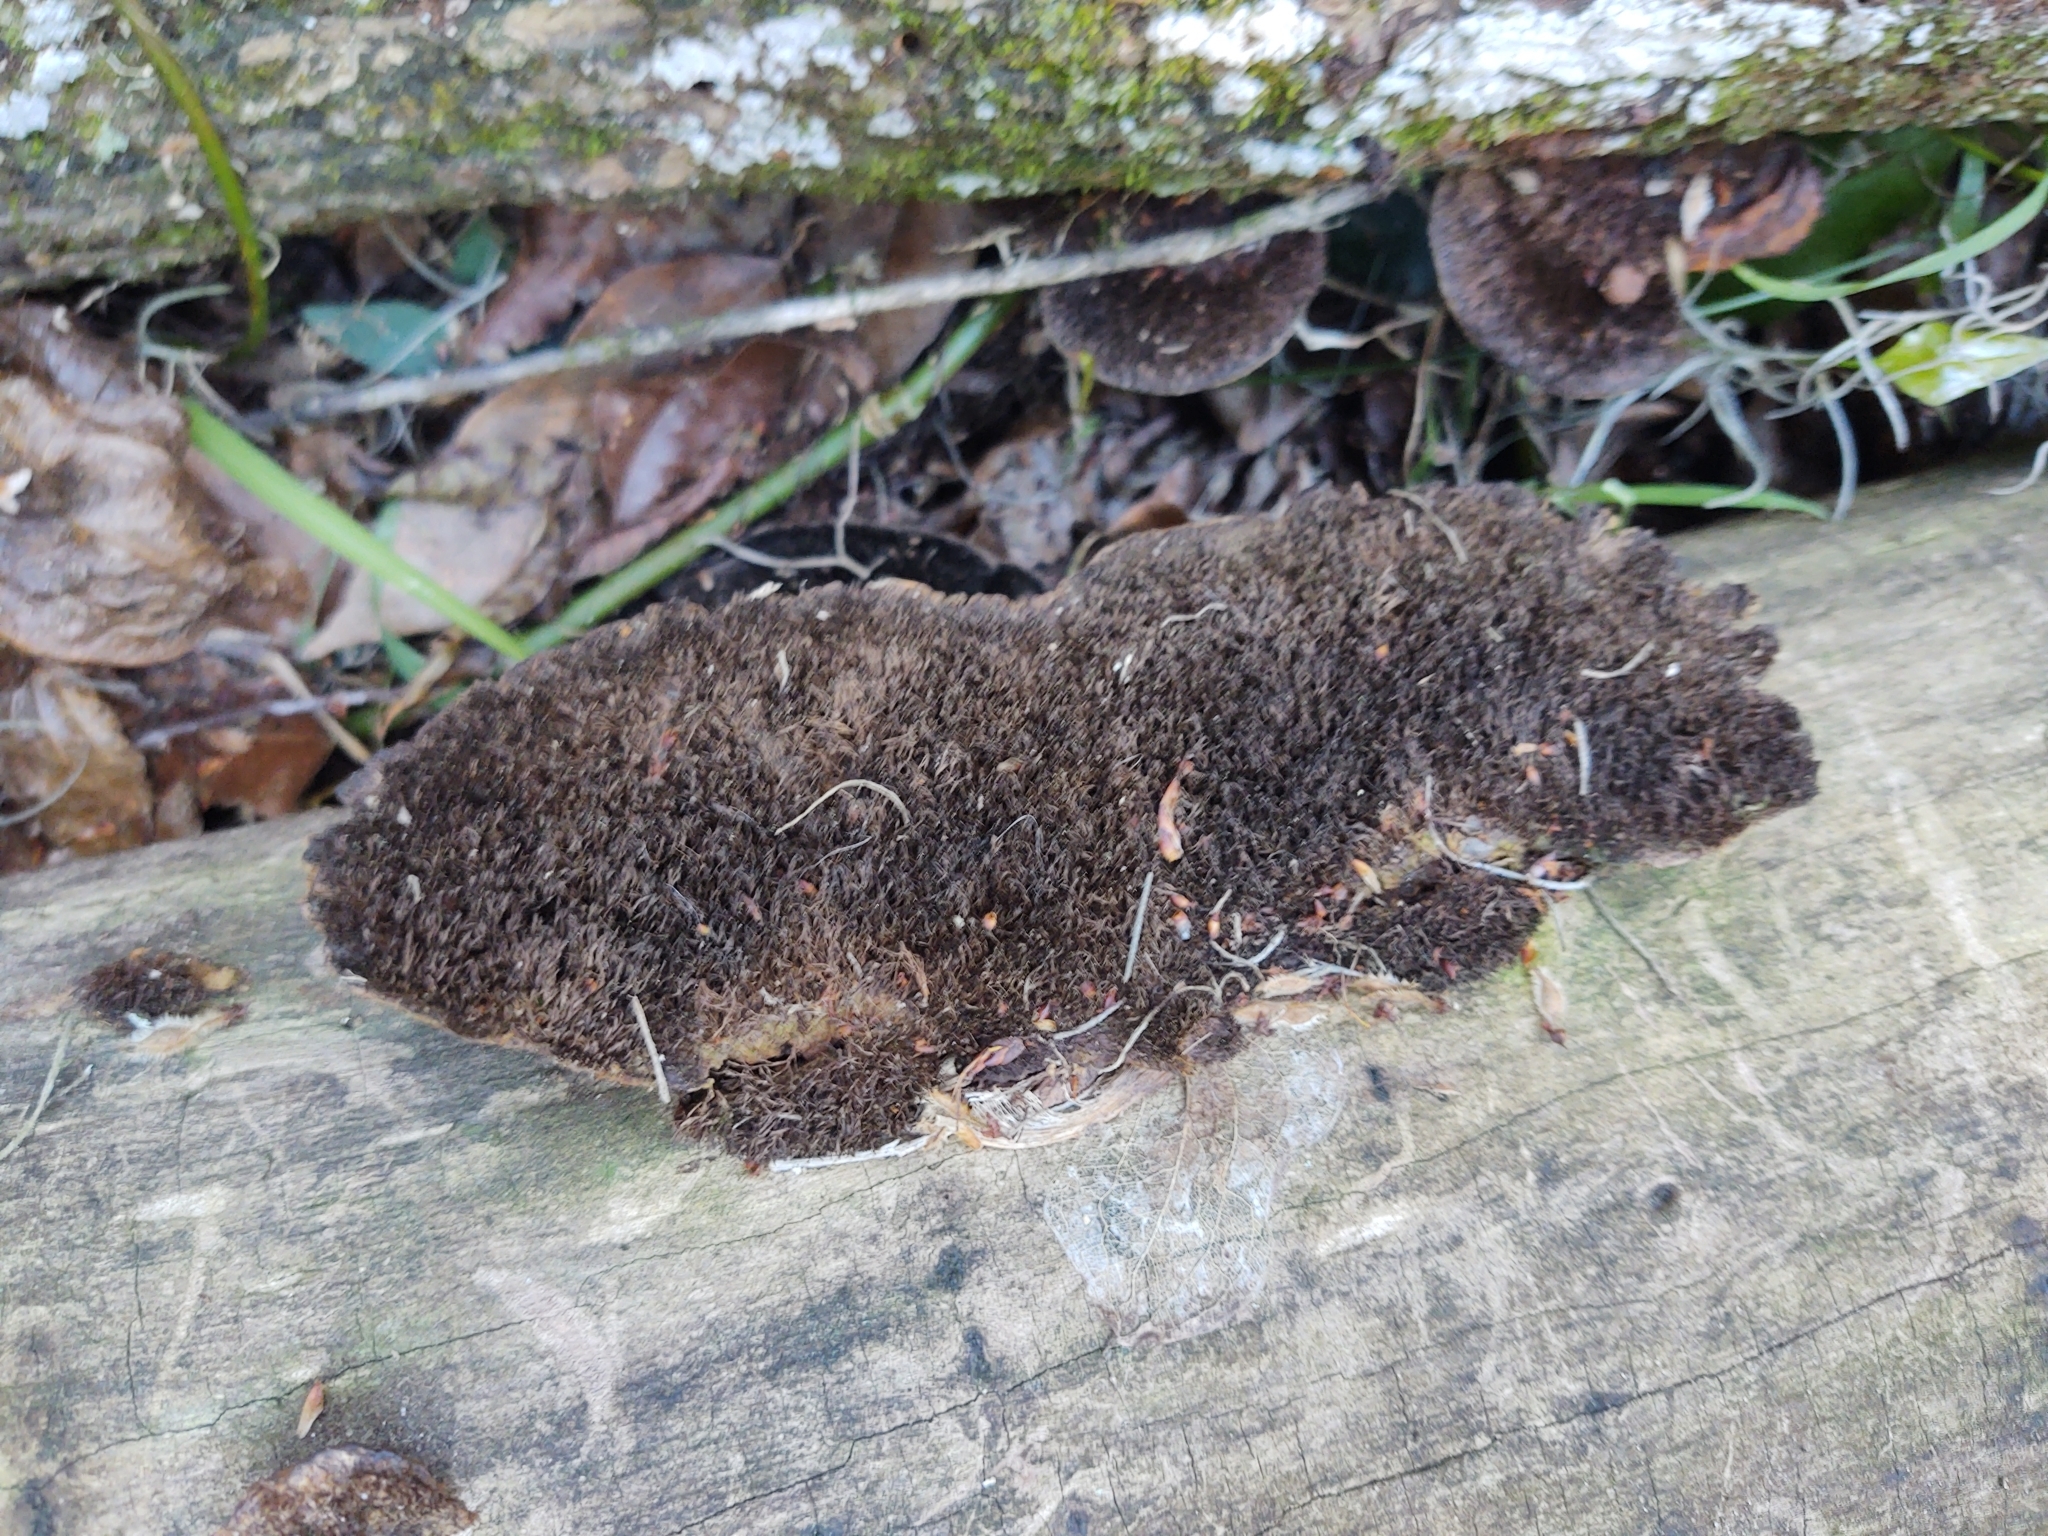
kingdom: Fungi
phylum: Basidiomycota
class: Agaricomycetes
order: Polyporales
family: Cerrenaceae
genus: Cerrena
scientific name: Cerrena hydnoides
